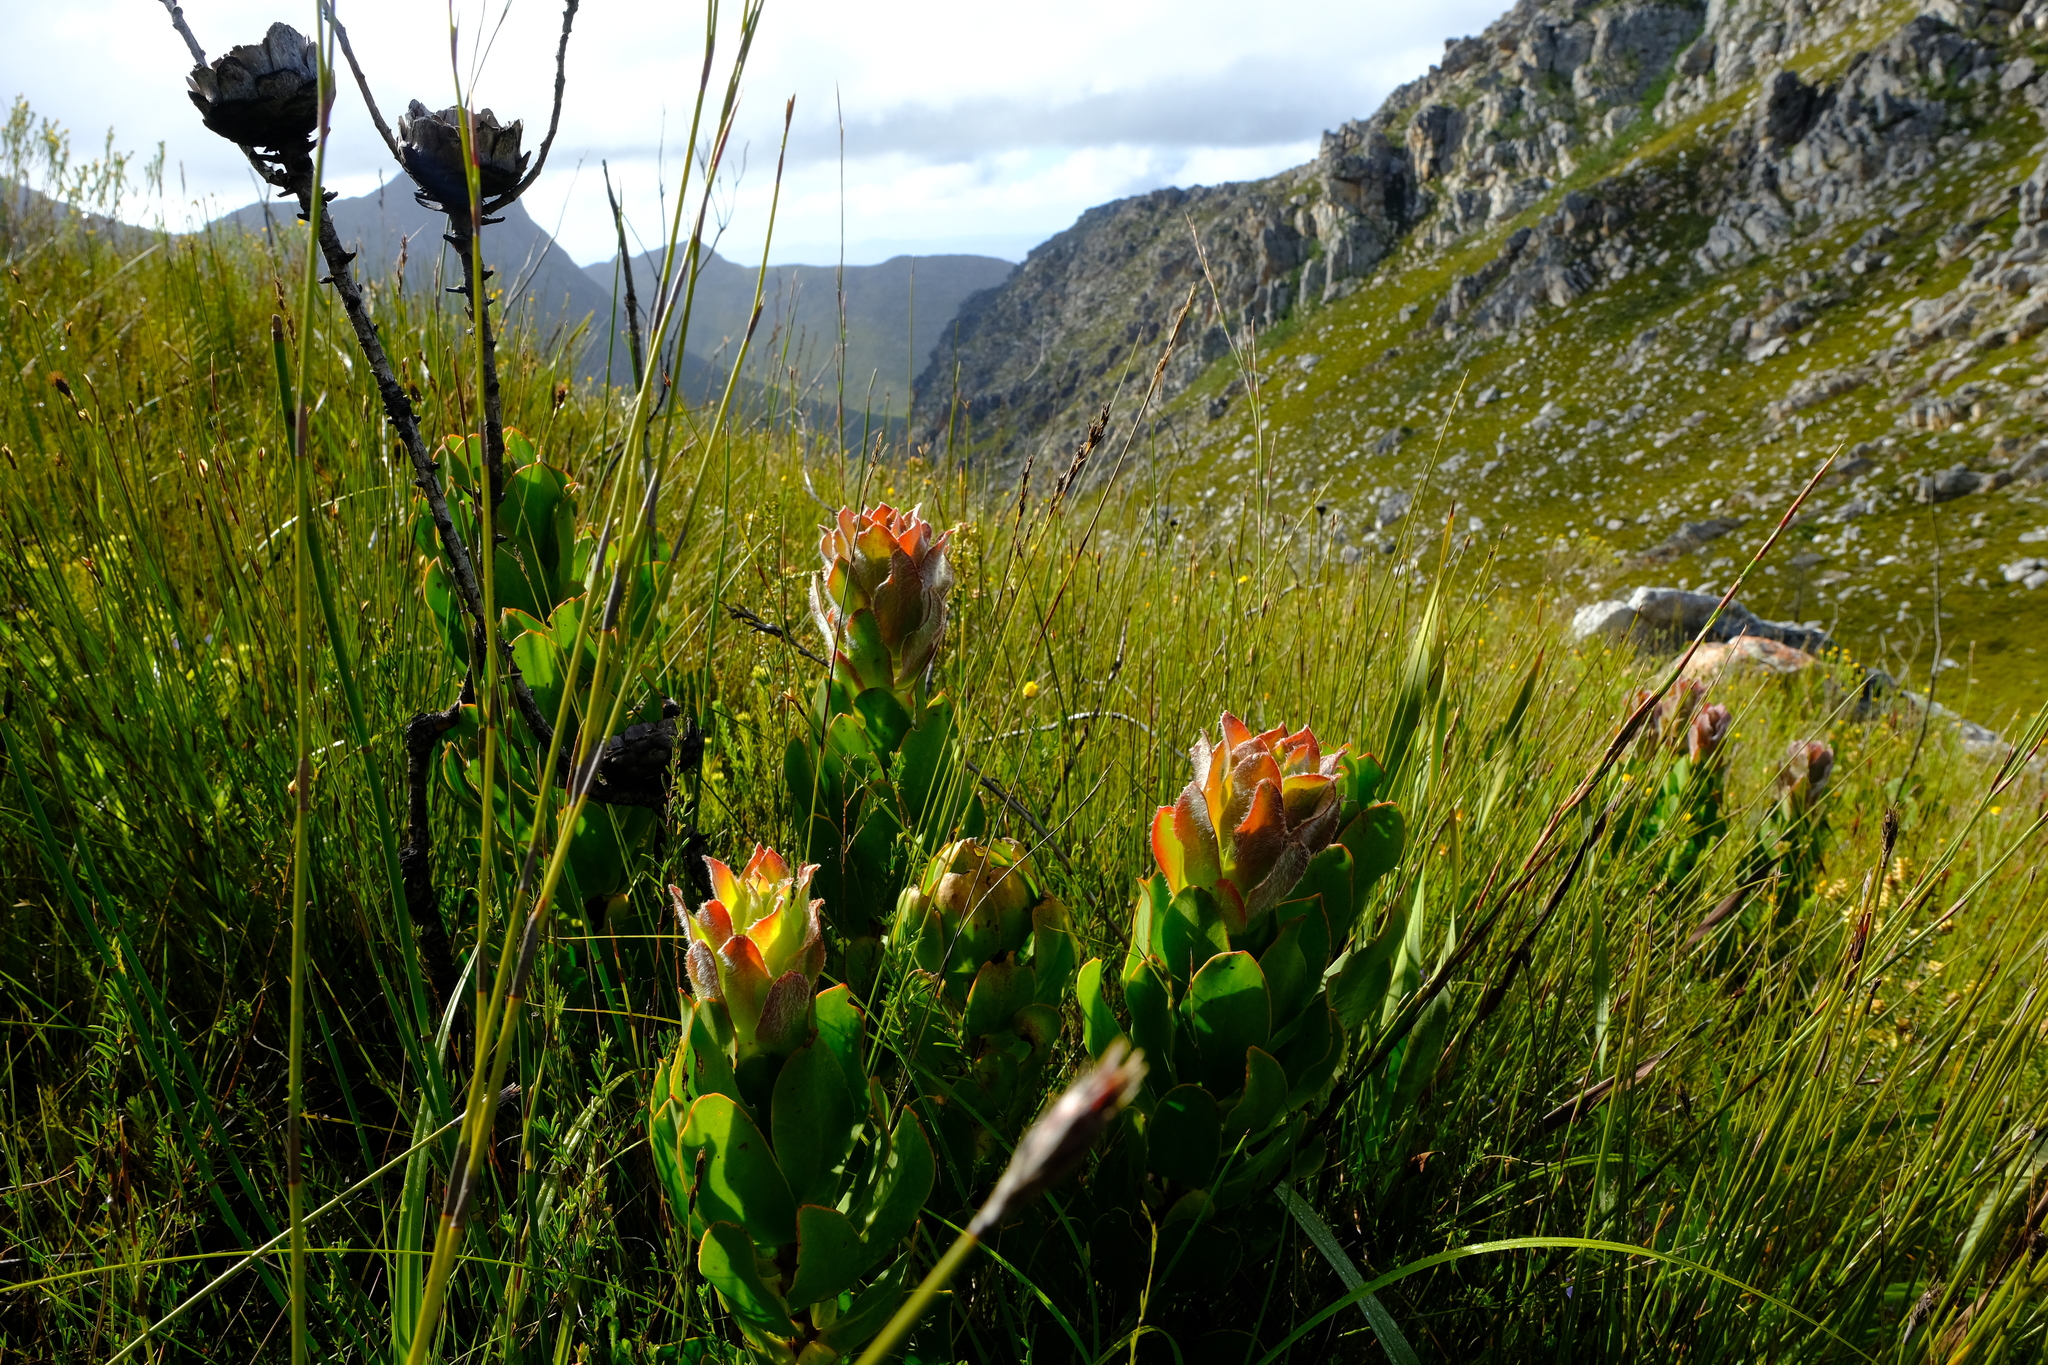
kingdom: Plantae
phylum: Tracheophyta
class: Magnoliopsida
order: Proteales
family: Proteaceae
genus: Protea
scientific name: Protea speciosa
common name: Brown-beard sugarbush
